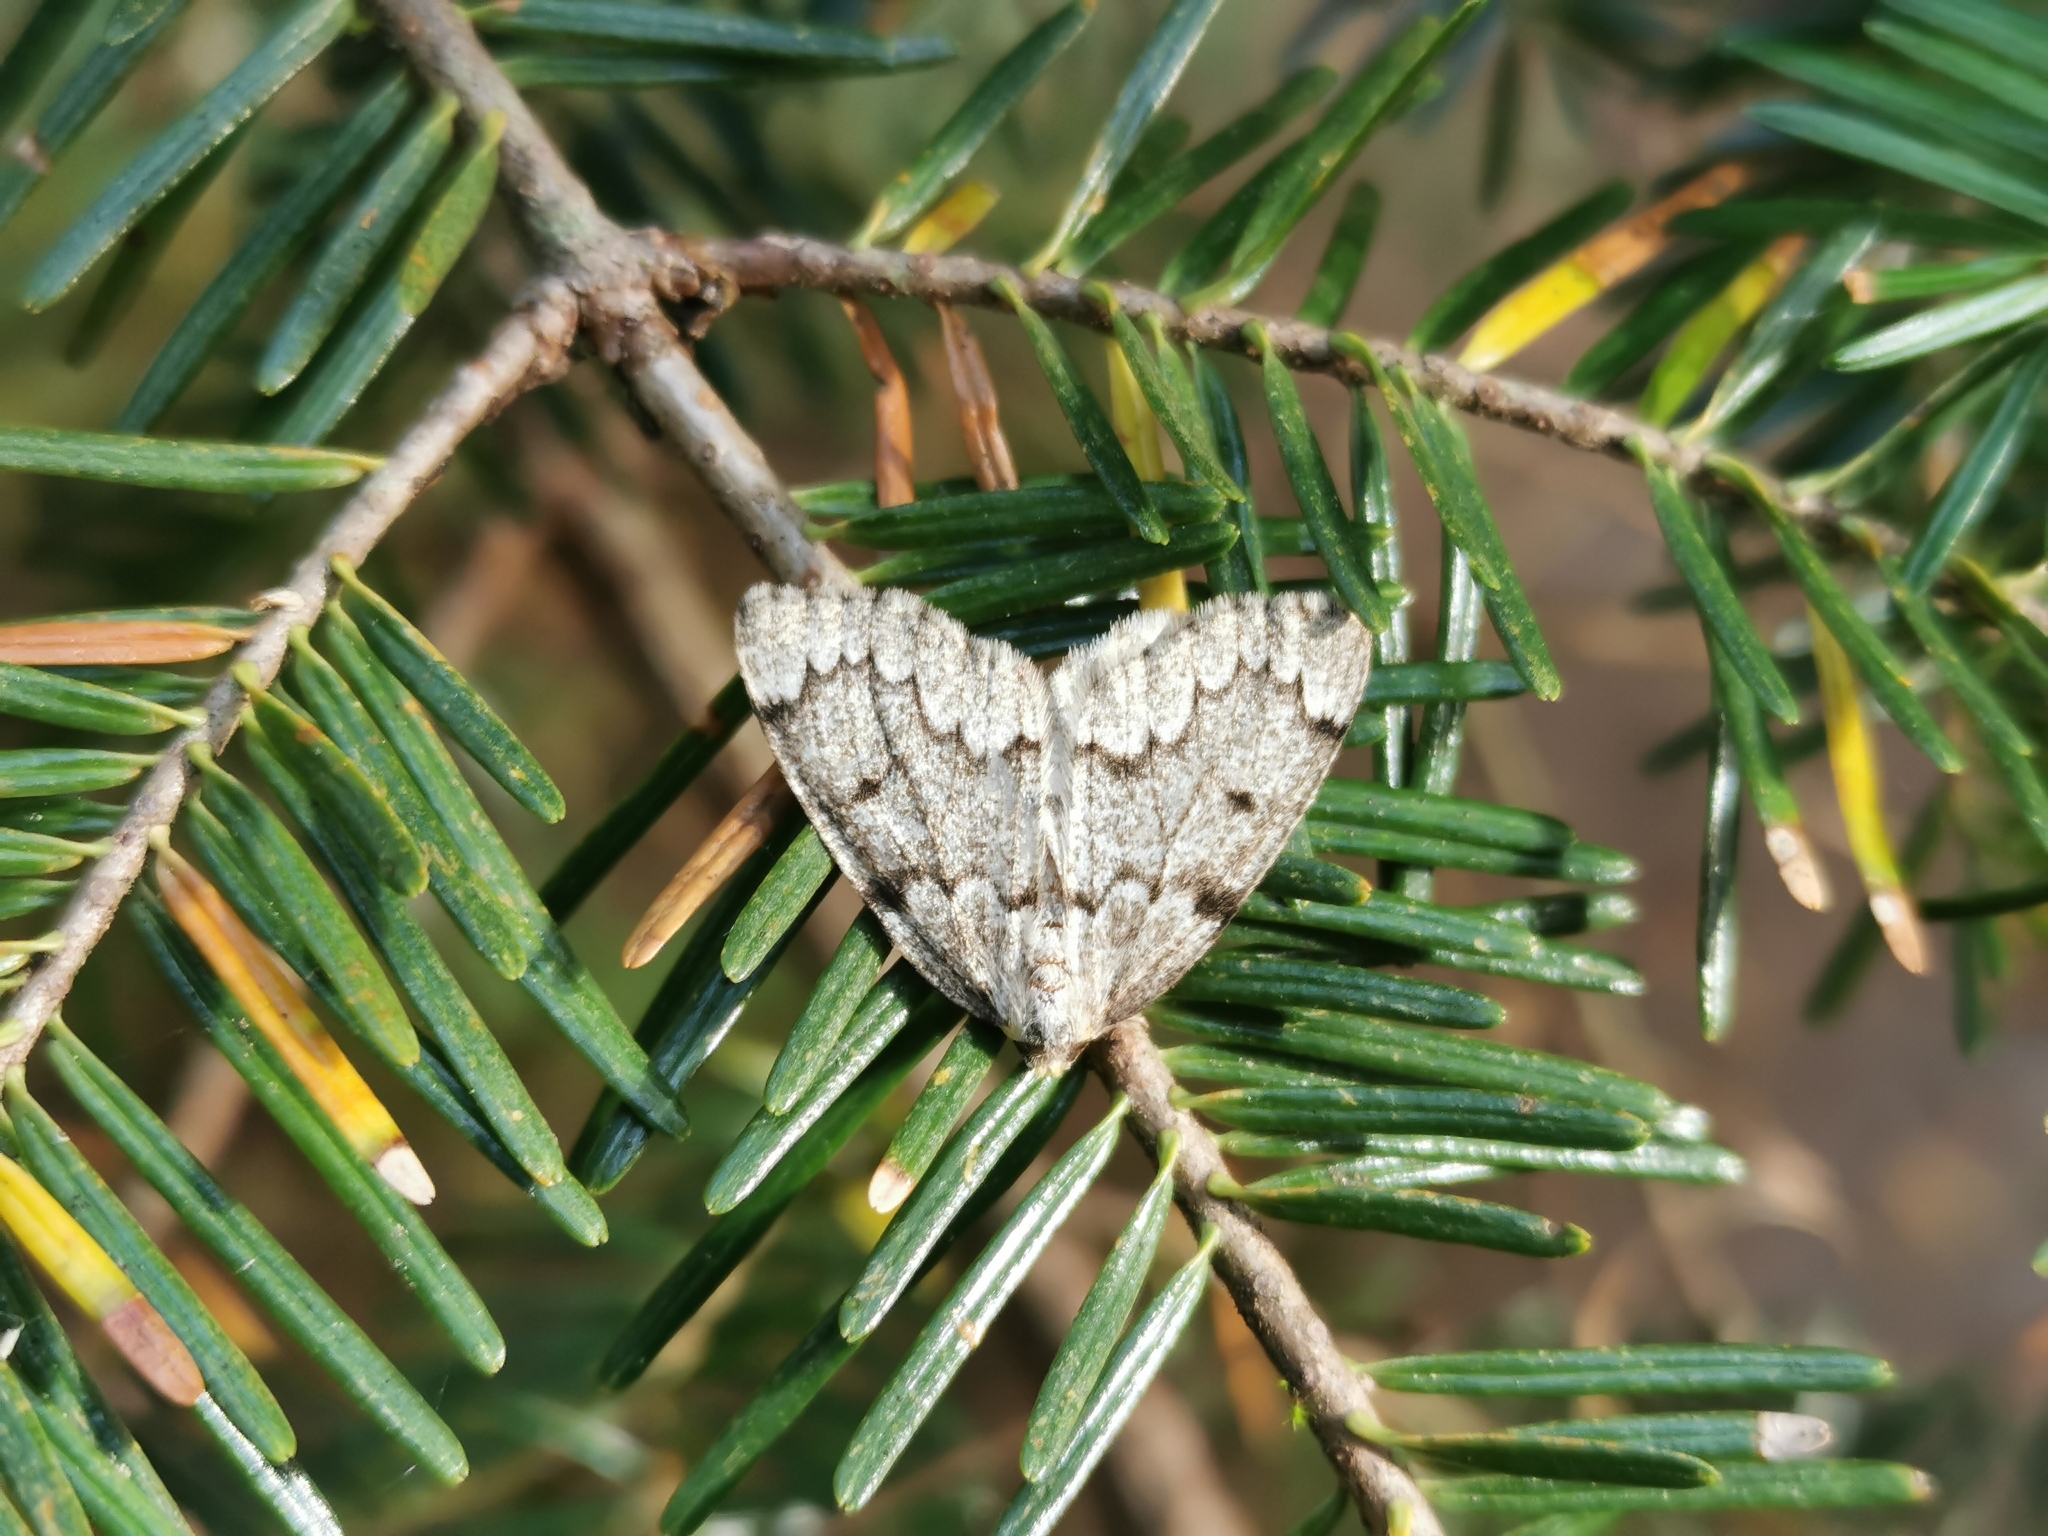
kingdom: Animalia
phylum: Arthropoda
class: Insecta
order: Lepidoptera
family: Geometridae
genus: Nepytia
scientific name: Nepytia canosaria
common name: False hemlock looper
